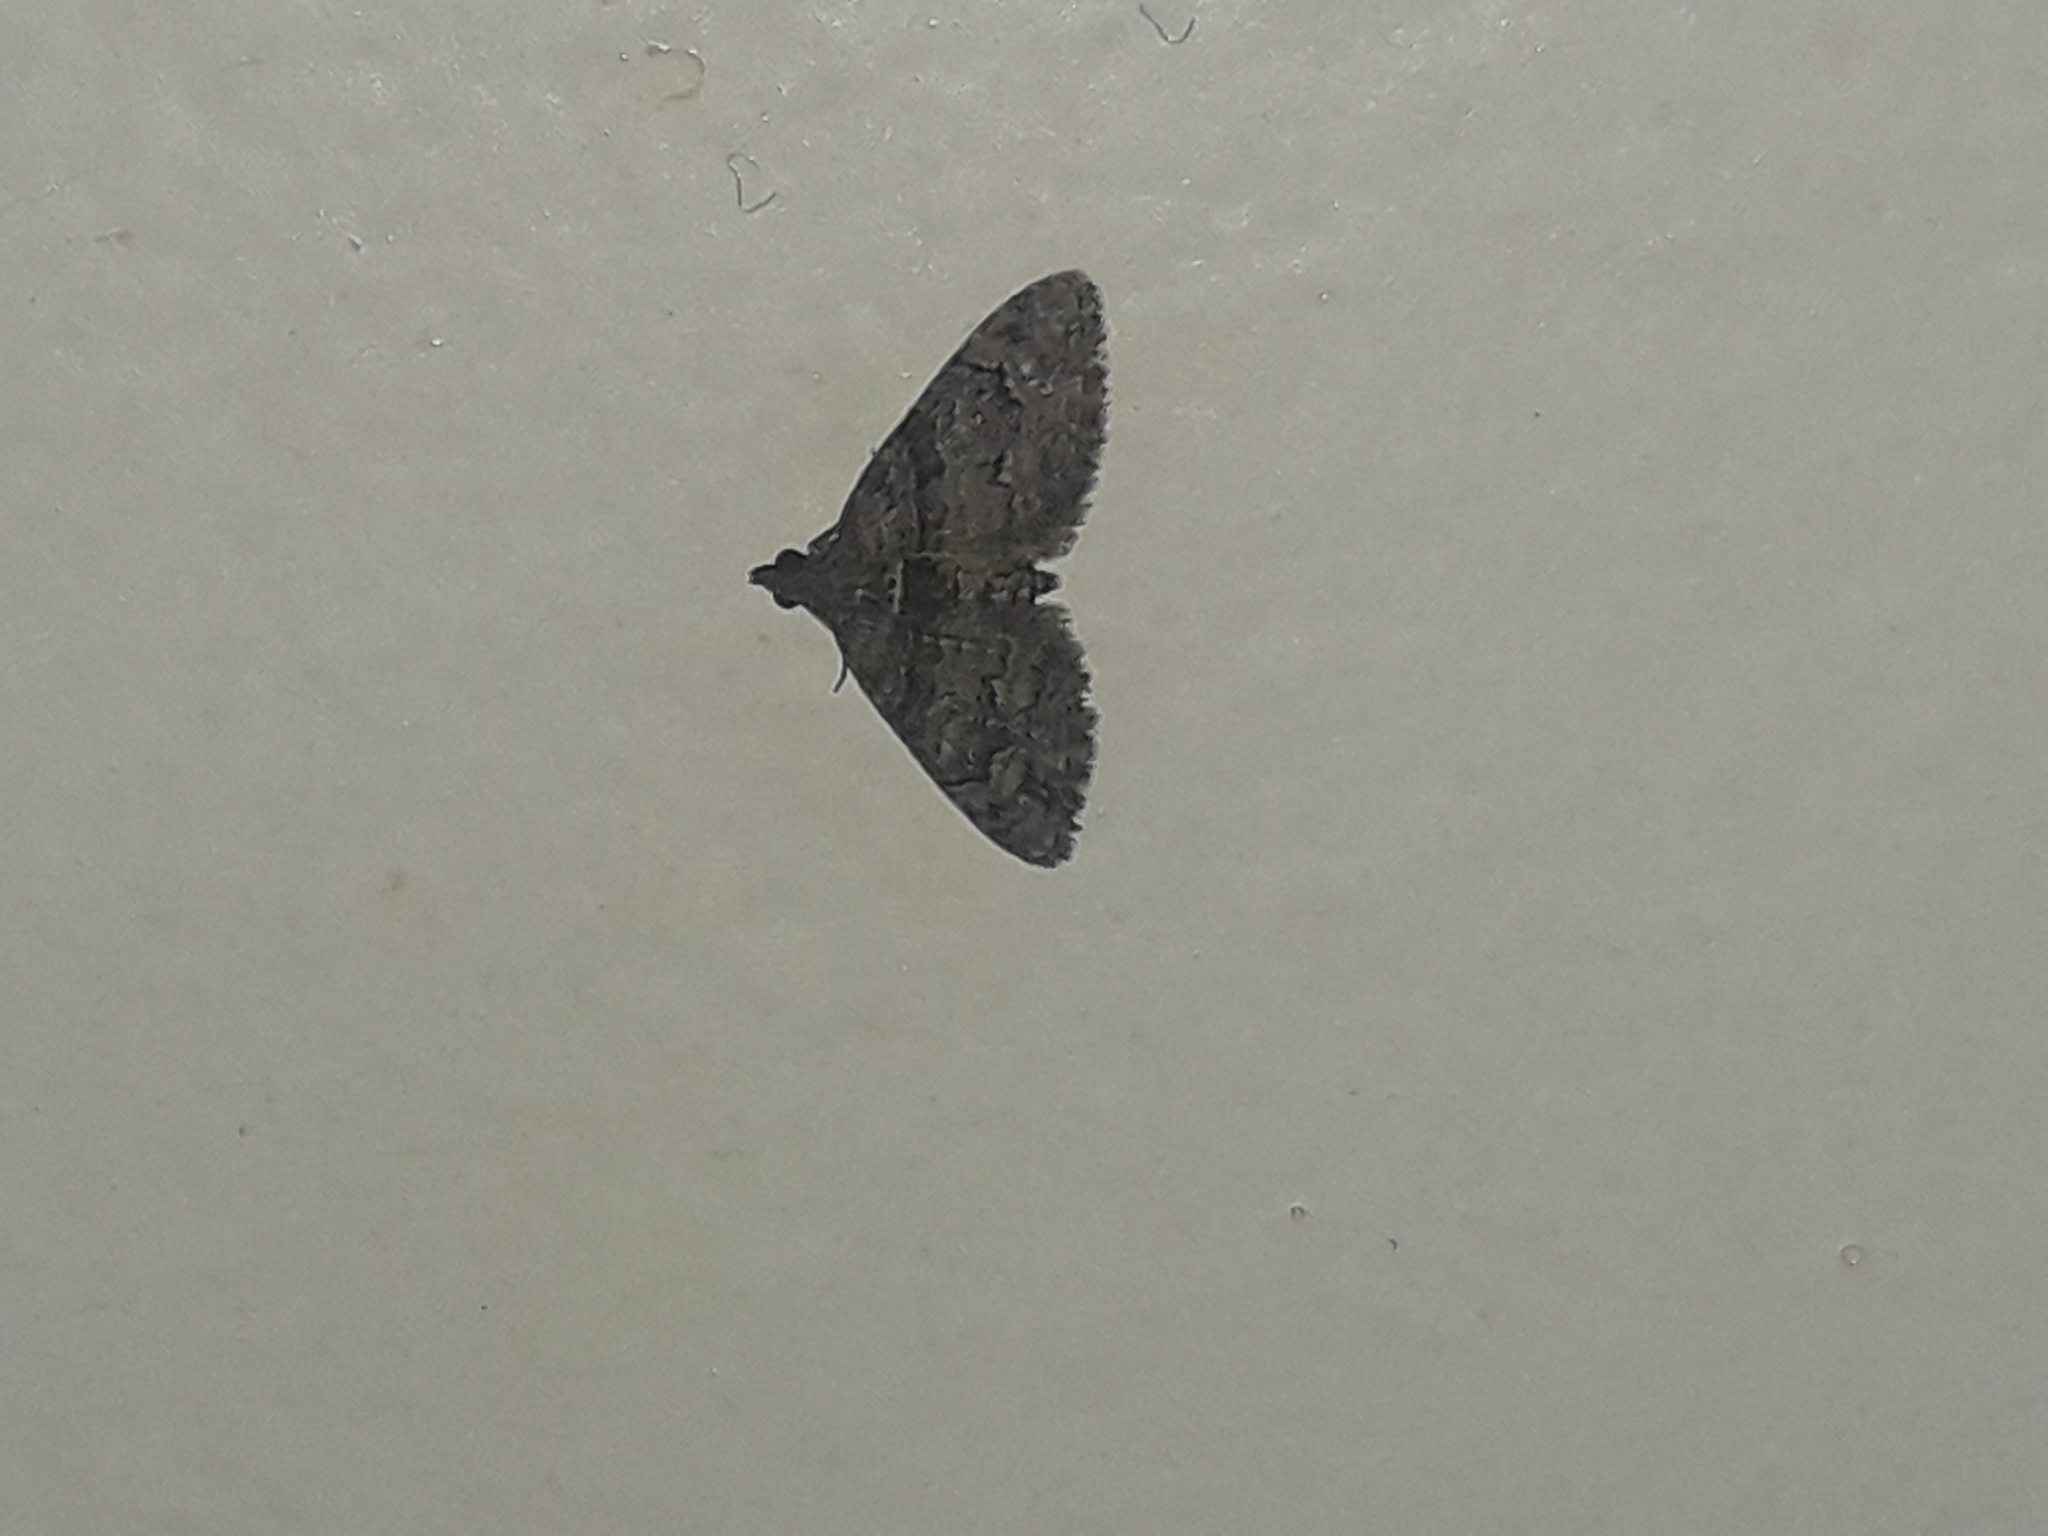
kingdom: Animalia
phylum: Arthropoda
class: Insecta
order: Lepidoptera
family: Geometridae
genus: Phrissogonus
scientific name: Phrissogonus laticostata
